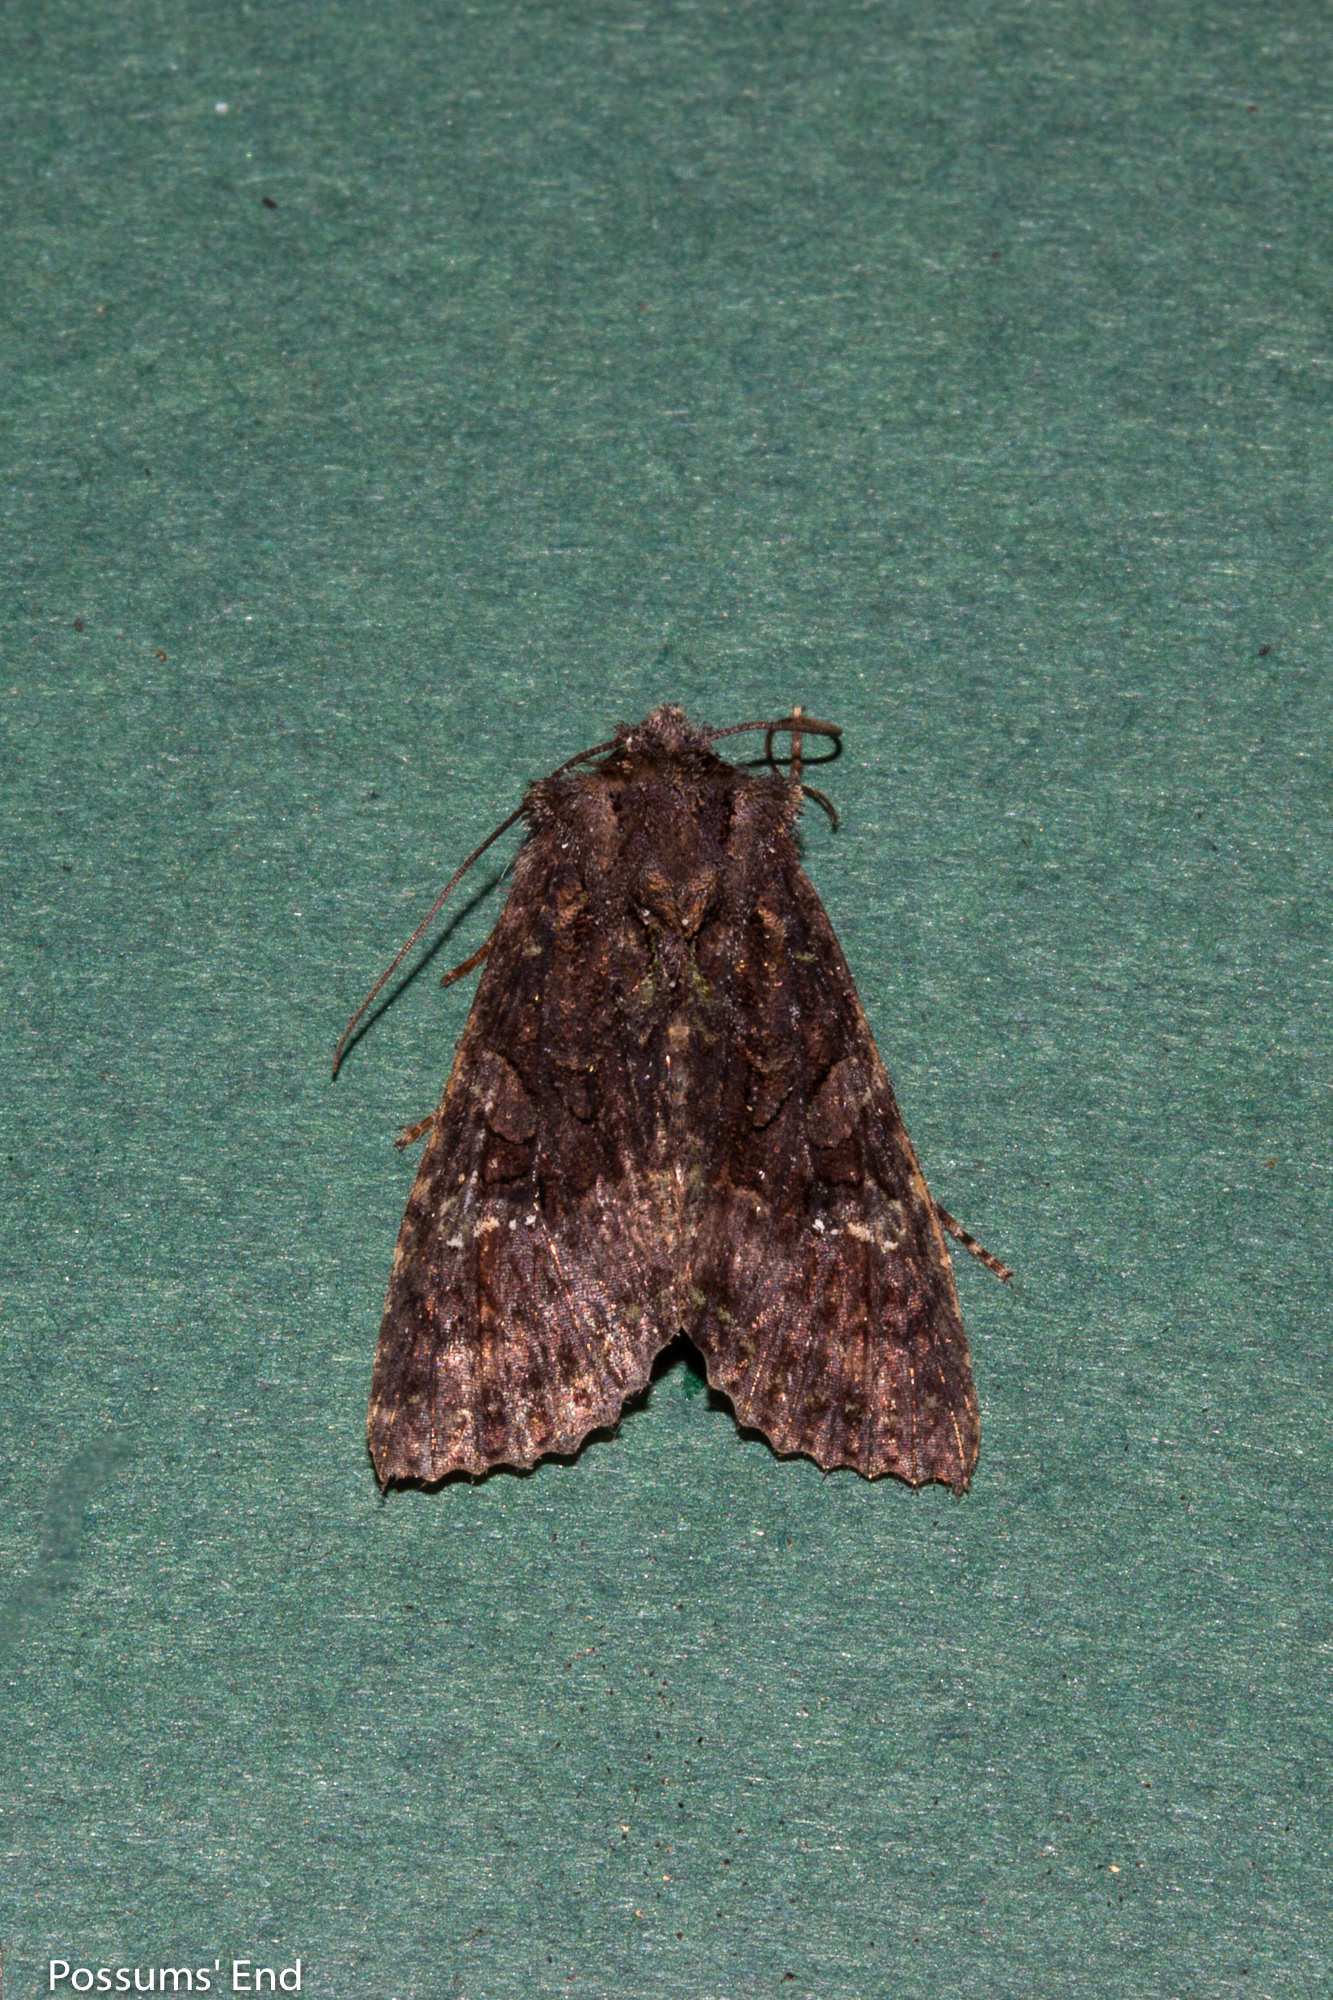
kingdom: Animalia
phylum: Arthropoda
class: Insecta
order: Lepidoptera
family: Noctuidae
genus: Meterana
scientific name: Meterana ochthistis
